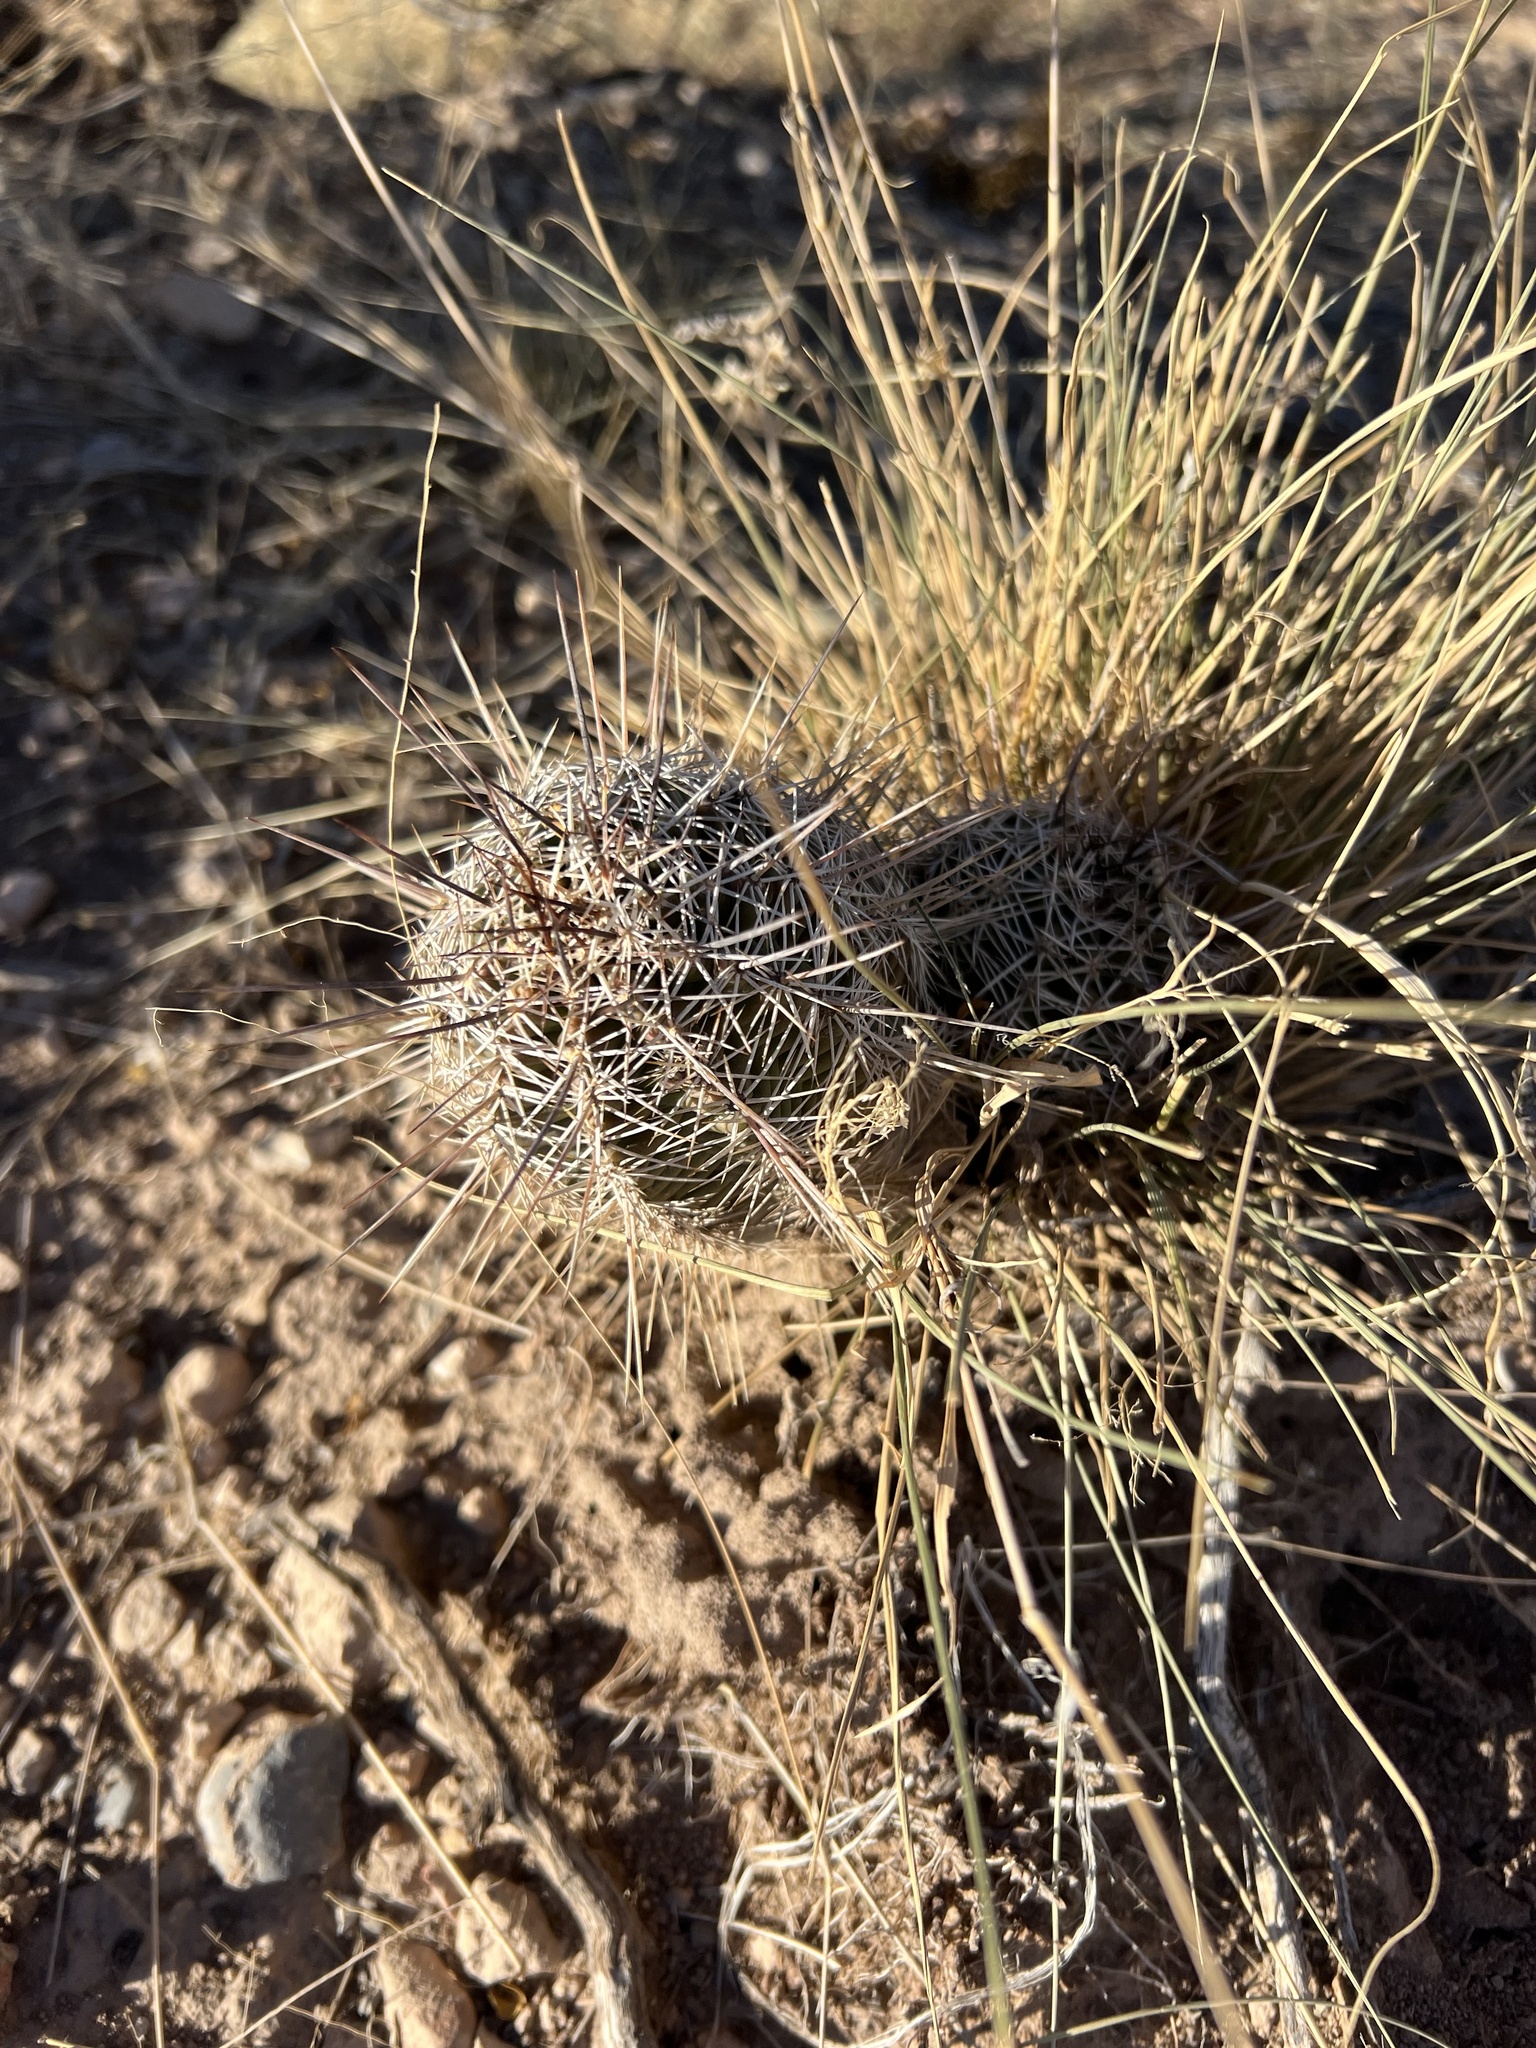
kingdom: Plantae
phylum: Tracheophyta
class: Magnoliopsida
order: Caryophyllales
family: Cactaceae
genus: Echinocereus
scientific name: Echinocereus fendleri
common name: Fendler's hedgehog cactus
